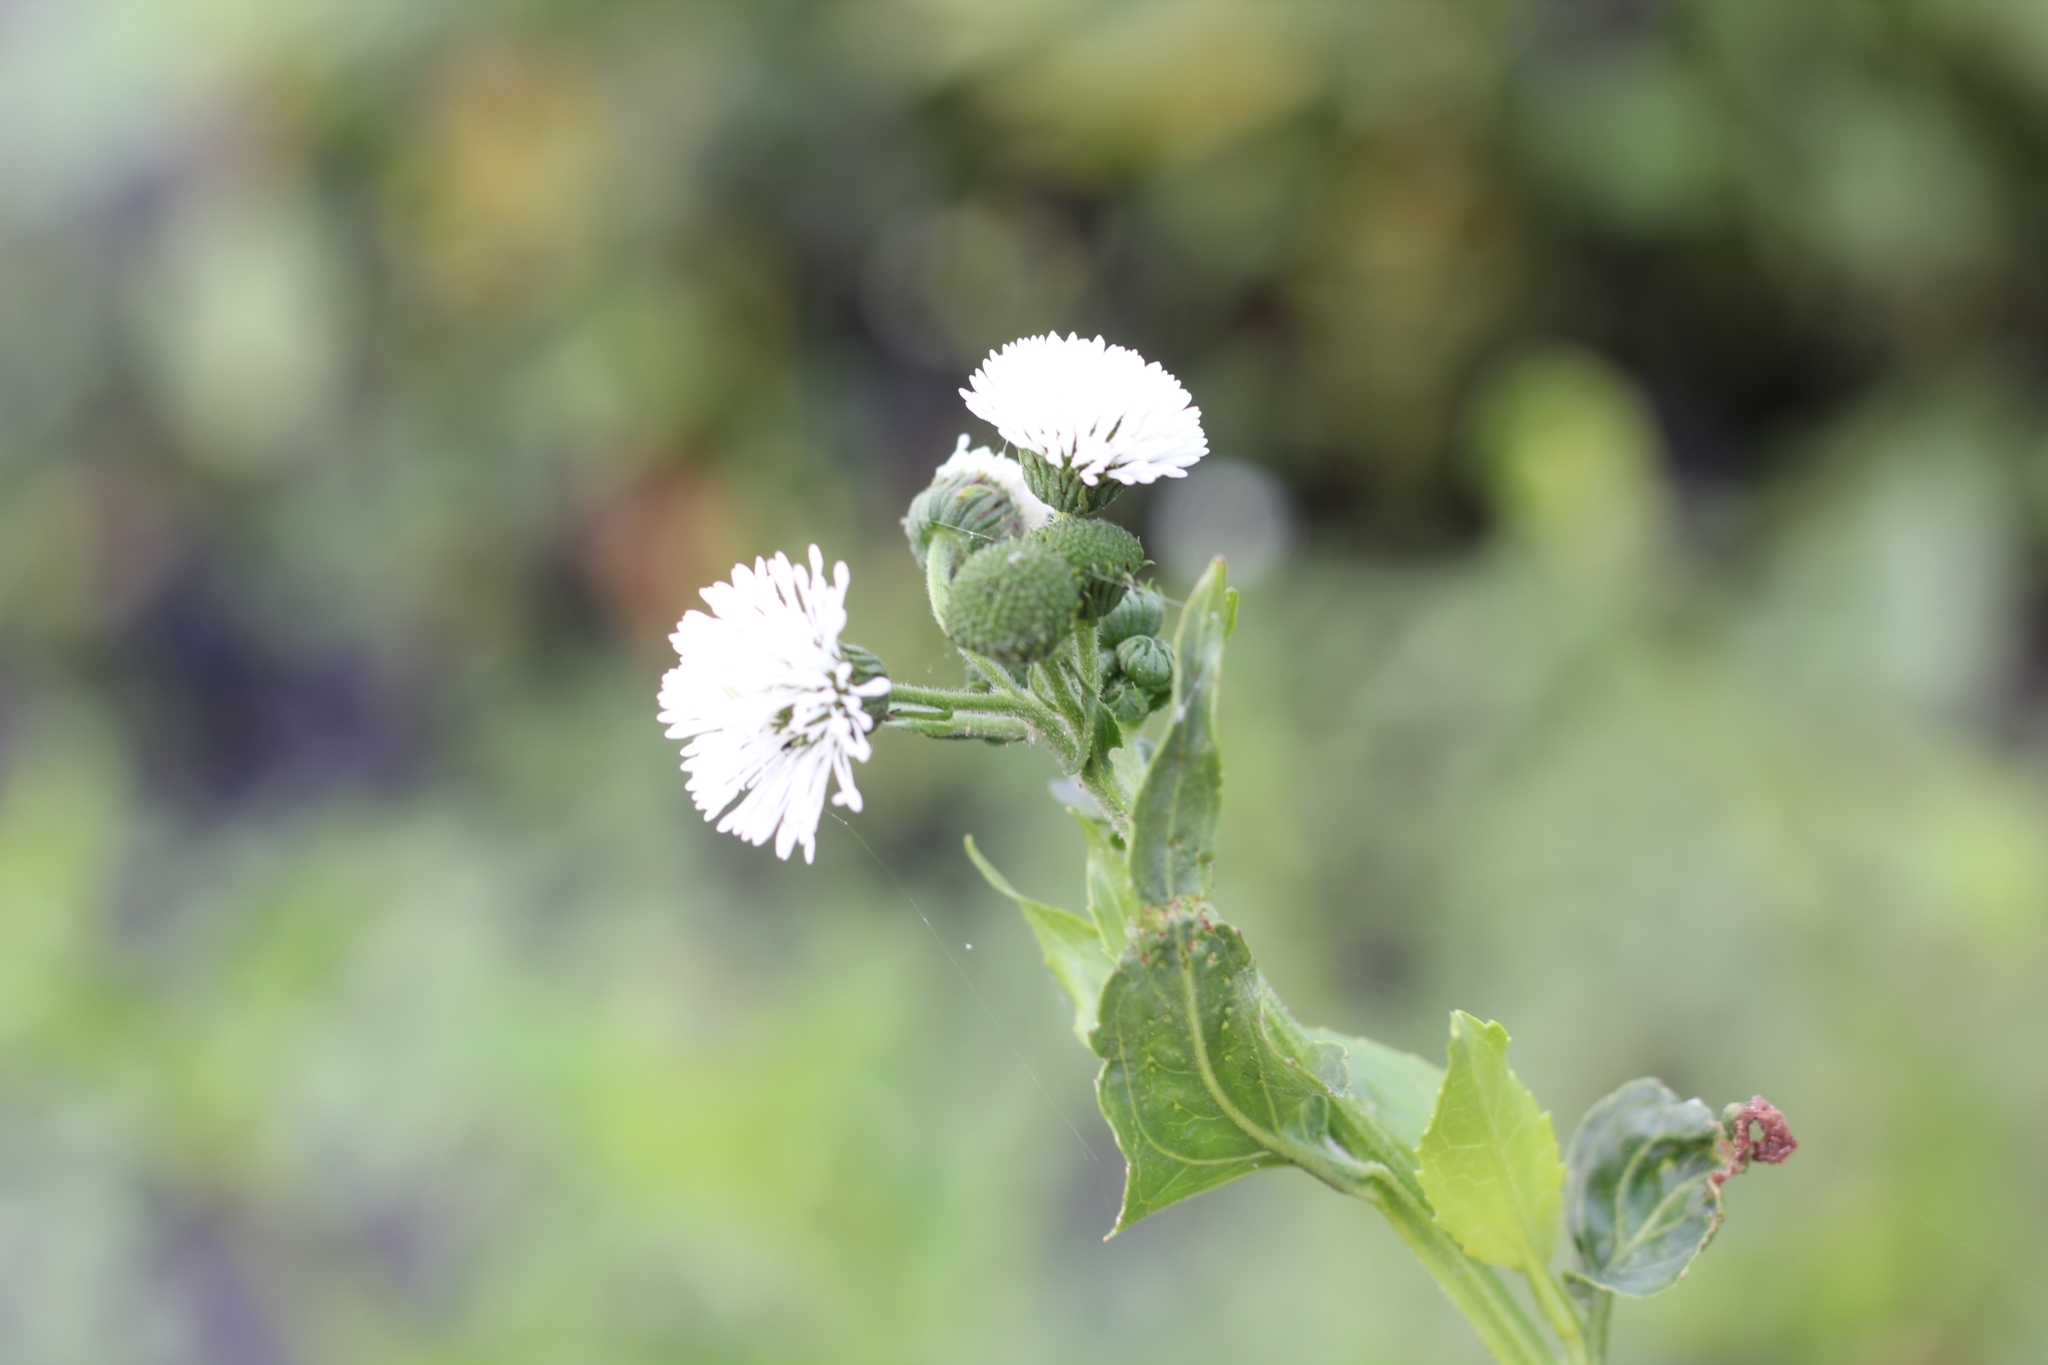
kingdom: Plantae
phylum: Tracheophyta
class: Magnoliopsida
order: Asterales
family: Asteraceae
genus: Gymnocoronis
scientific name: Gymnocoronis spilanthoides
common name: Senegal teaplant
